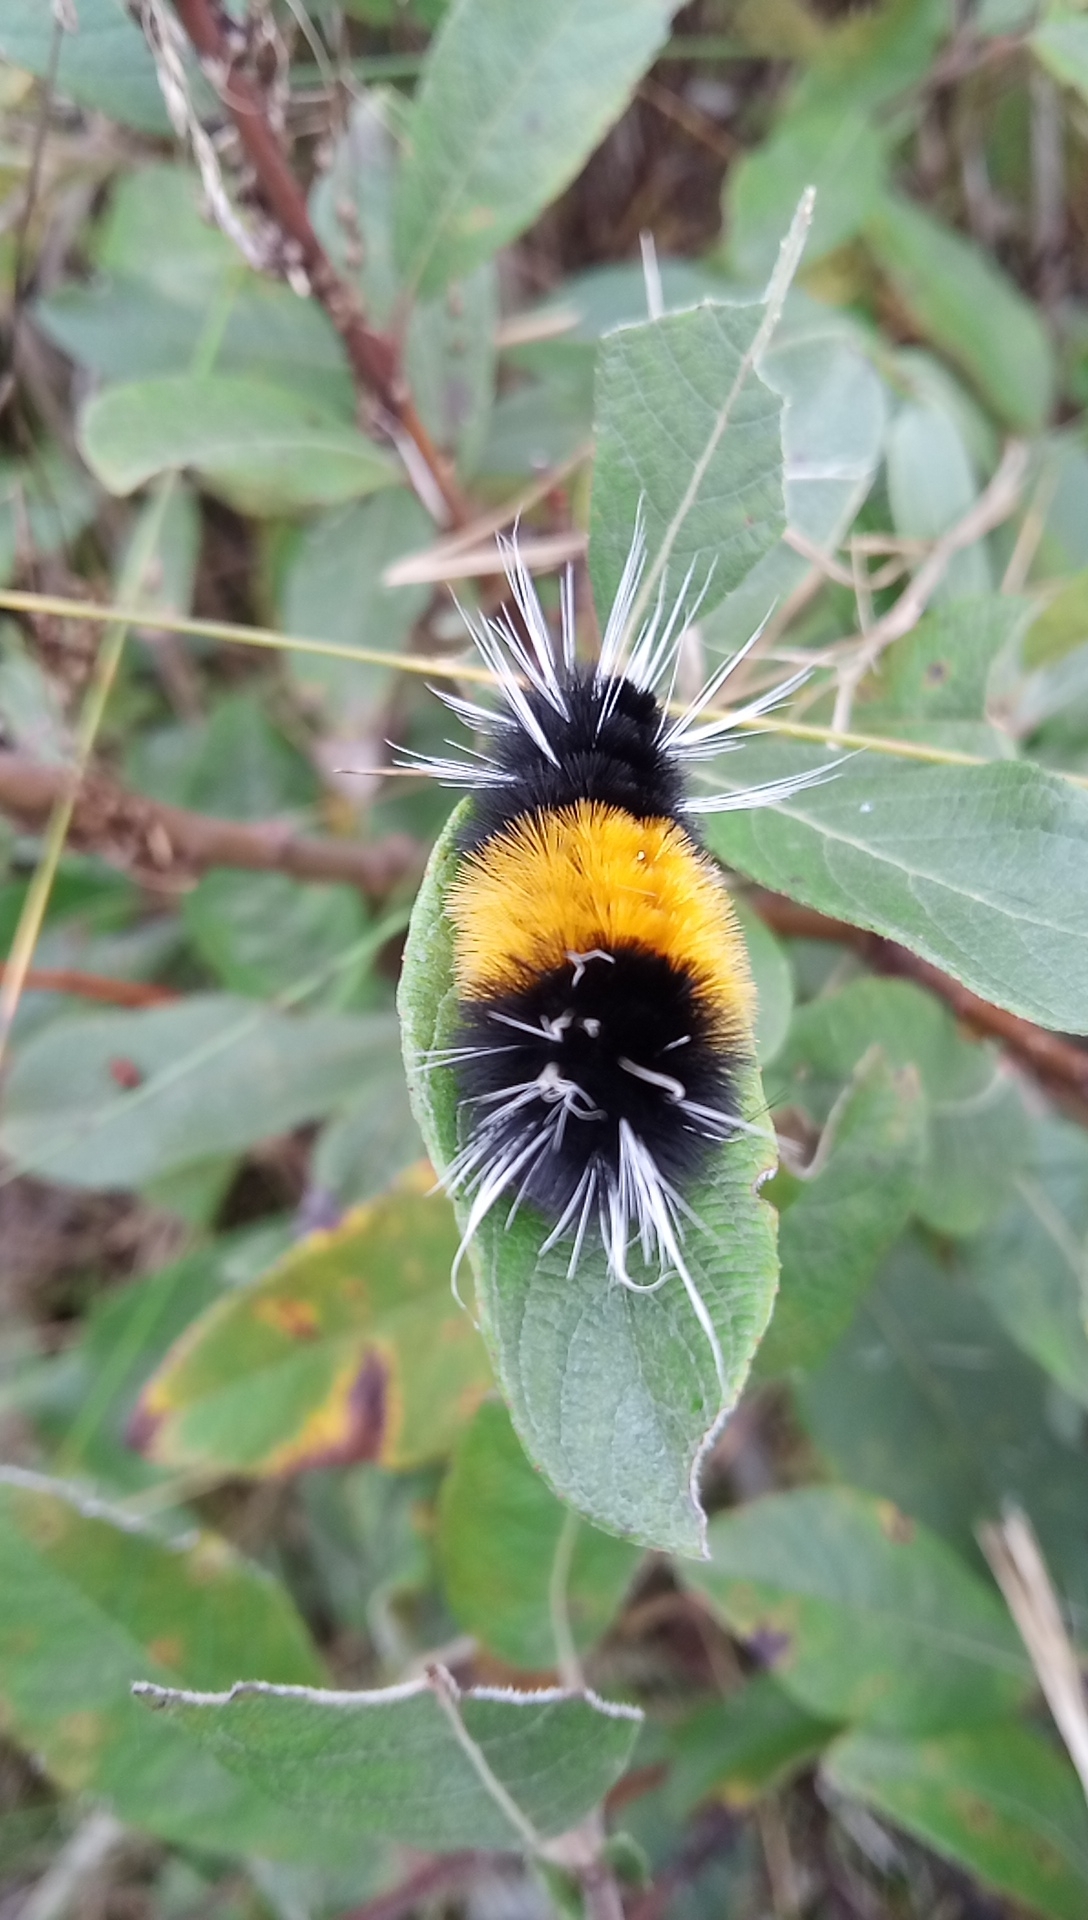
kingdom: Animalia
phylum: Arthropoda
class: Insecta
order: Lepidoptera
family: Erebidae
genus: Lophocampa
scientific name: Lophocampa maculata
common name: Spotted tussock moth
